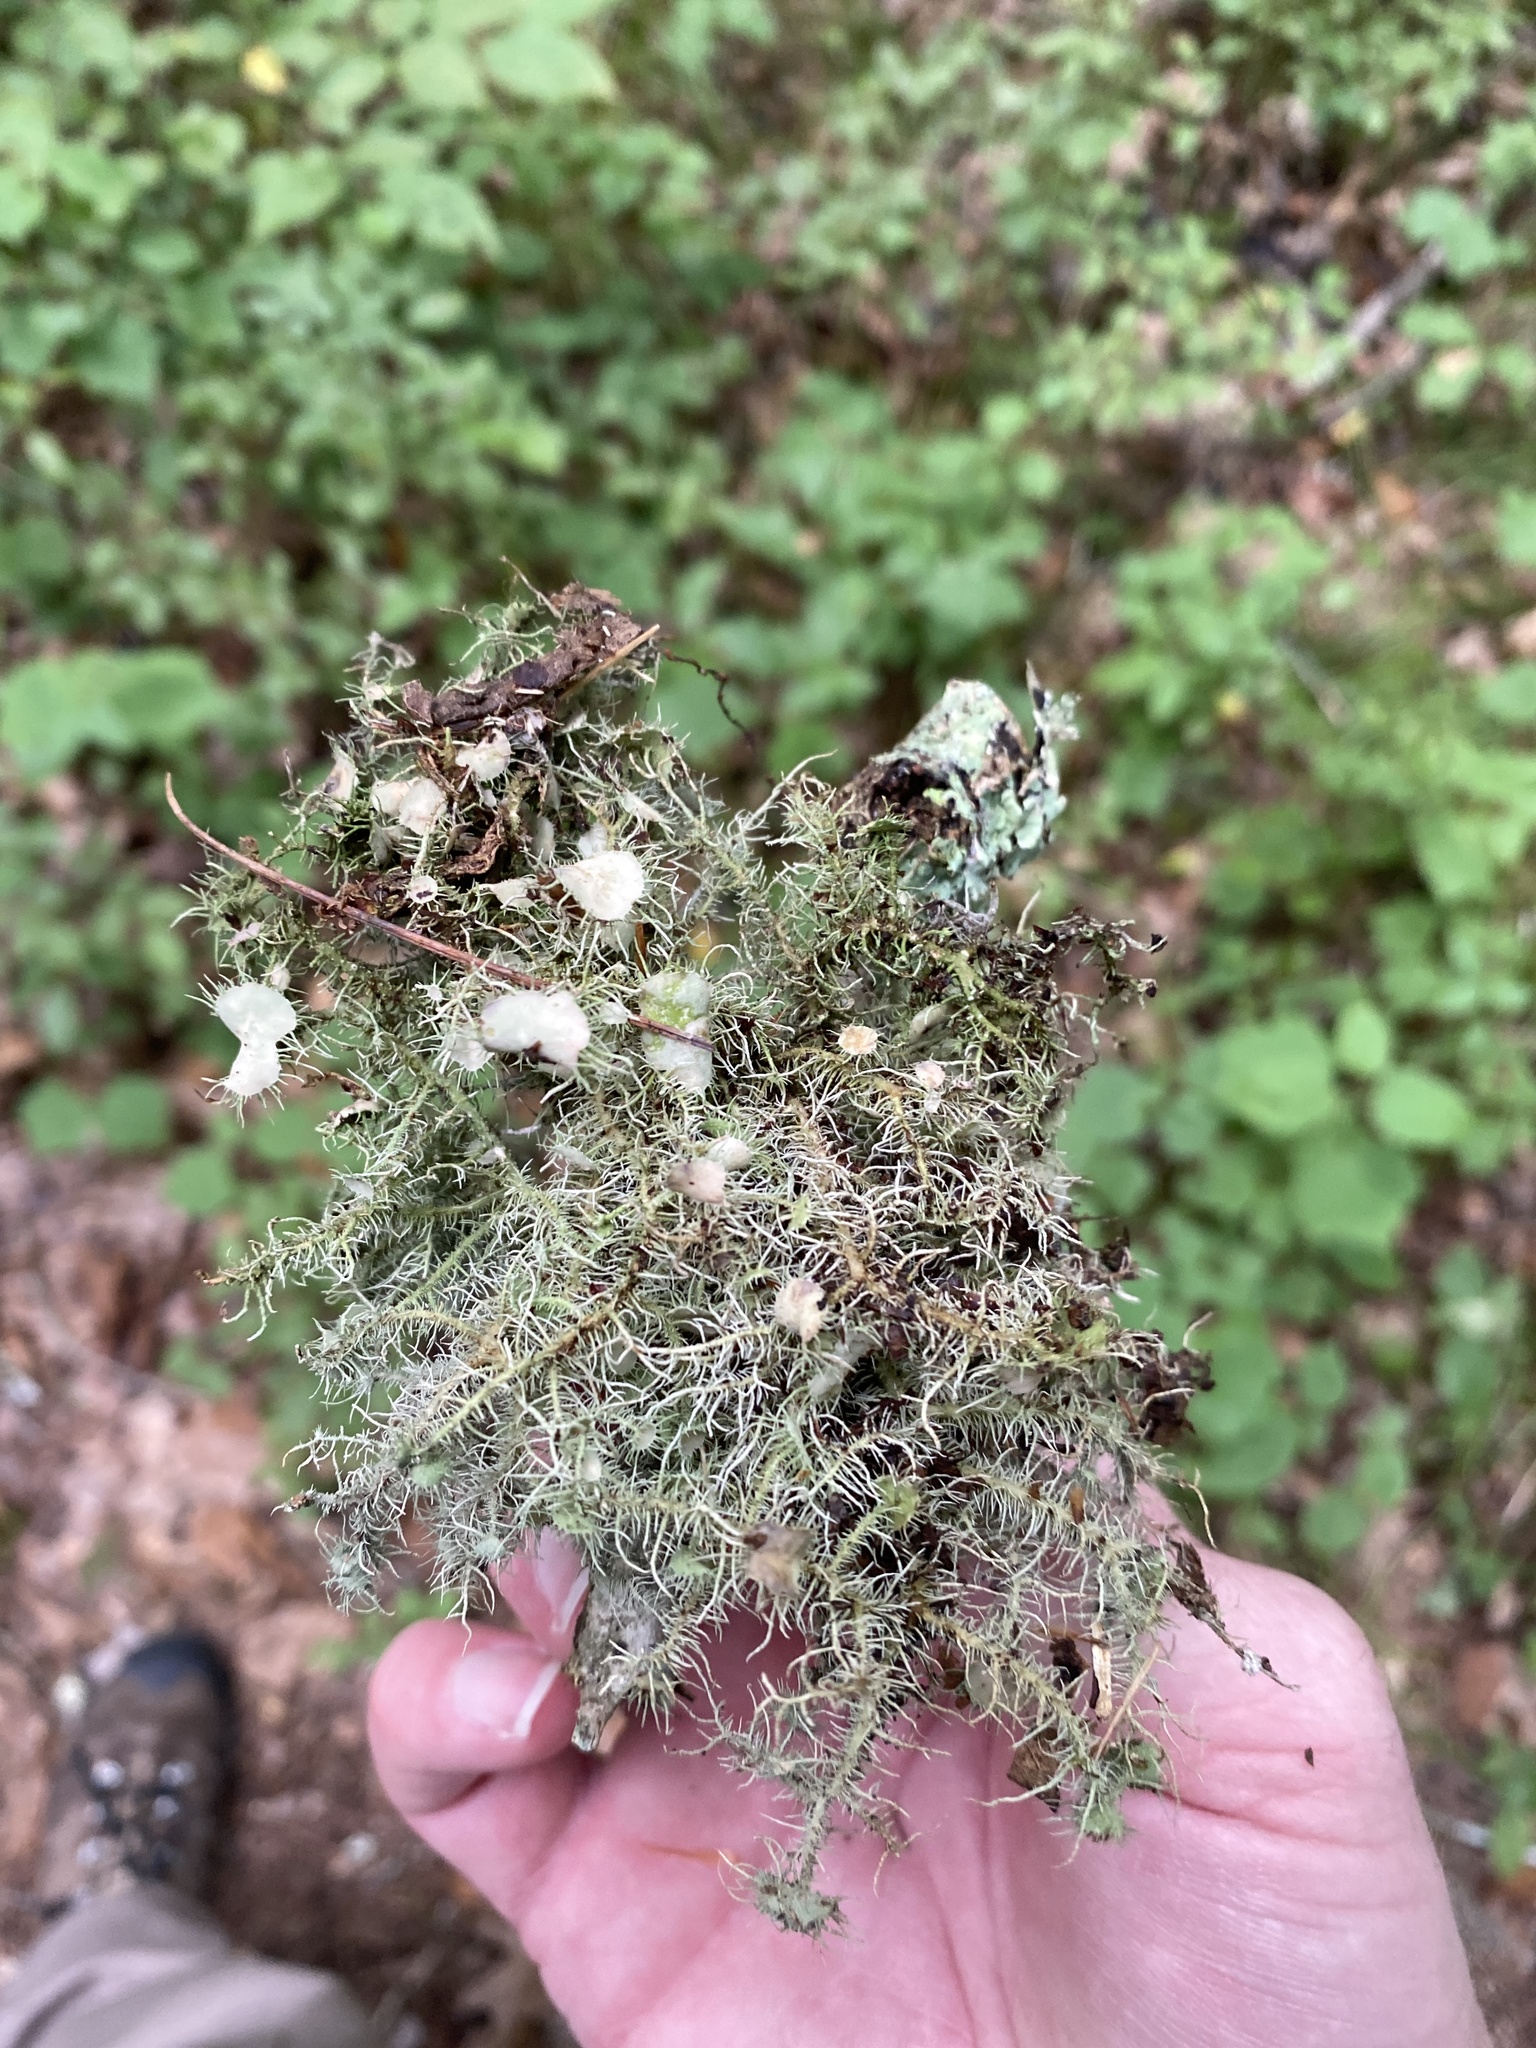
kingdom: Fungi
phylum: Ascomycota
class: Lecanoromycetes
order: Lecanorales
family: Parmeliaceae
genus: Usnea
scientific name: Usnea strigosa
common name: Bushy beard lichen
